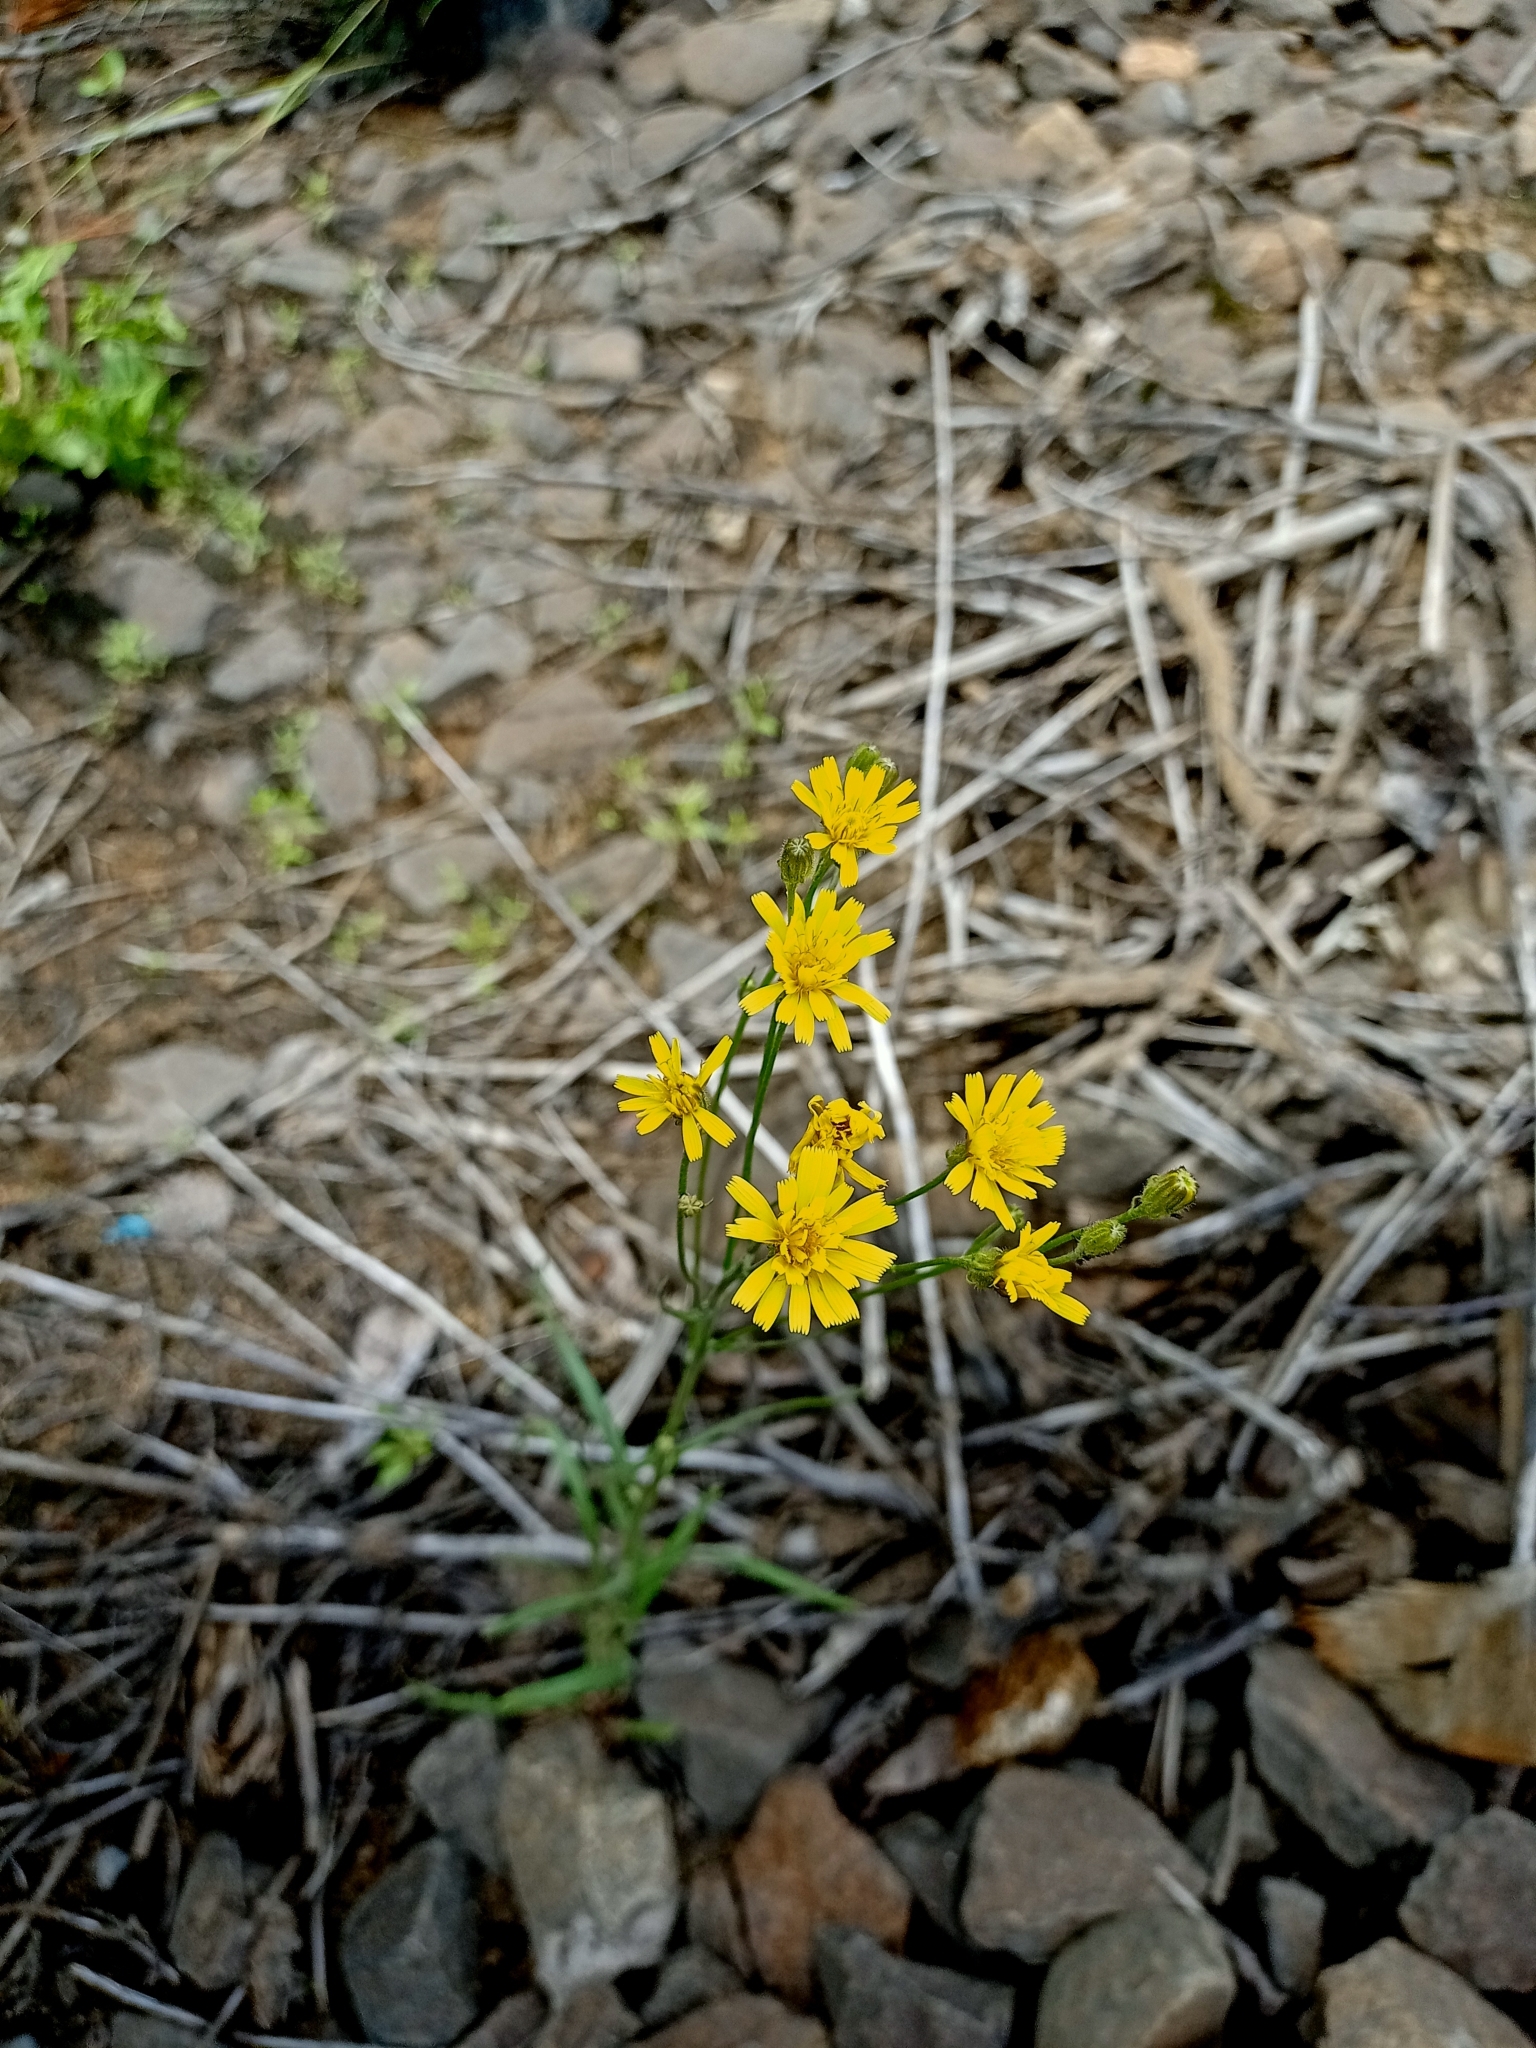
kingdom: Plantae
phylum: Tracheophyta
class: Magnoliopsida
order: Asterales
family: Asteraceae
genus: Crepis
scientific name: Crepis tectorum
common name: Narrow-leaved hawk's-beard
